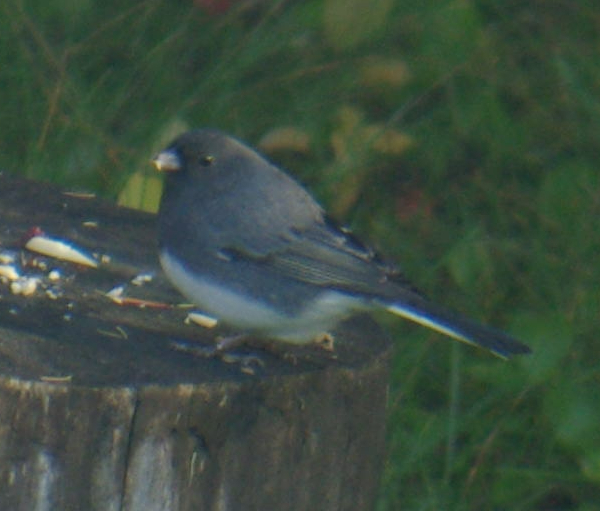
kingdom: Animalia
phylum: Chordata
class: Aves
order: Passeriformes
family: Passerellidae
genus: Junco
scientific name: Junco hyemalis
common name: Dark-eyed junco
